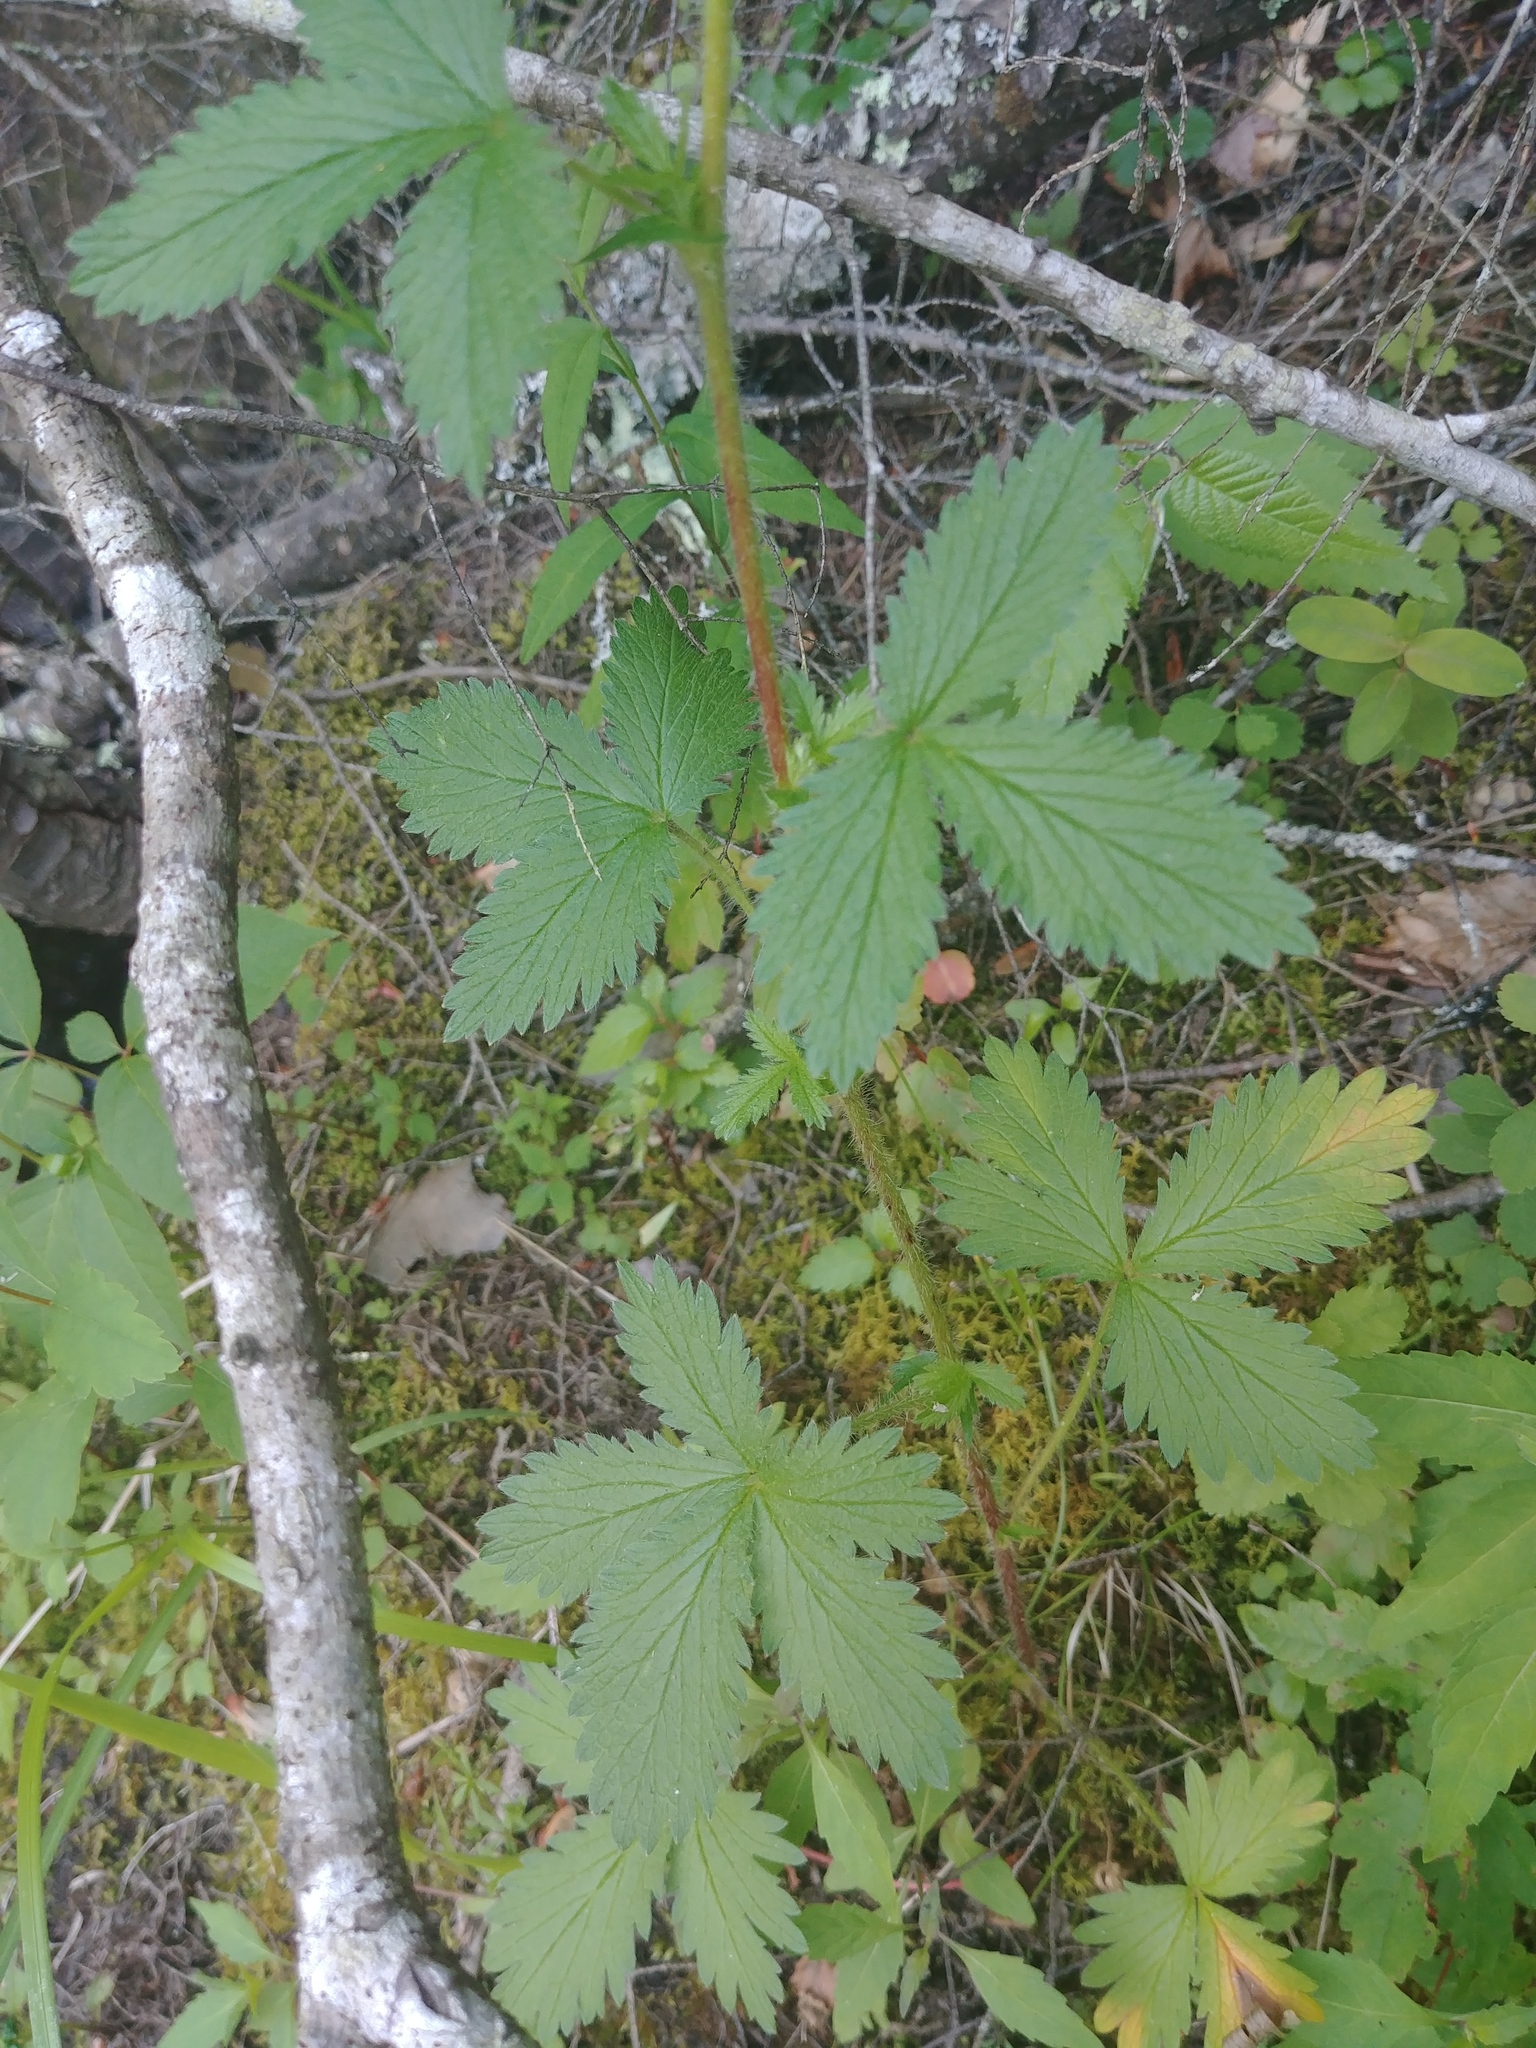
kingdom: Plantae
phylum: Tracheophyta
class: Magnoliopsida
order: Rosales
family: Rosaceae
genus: Potentilla
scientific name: Potentilla norvegica
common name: Ternate-leaved cinquefoil
